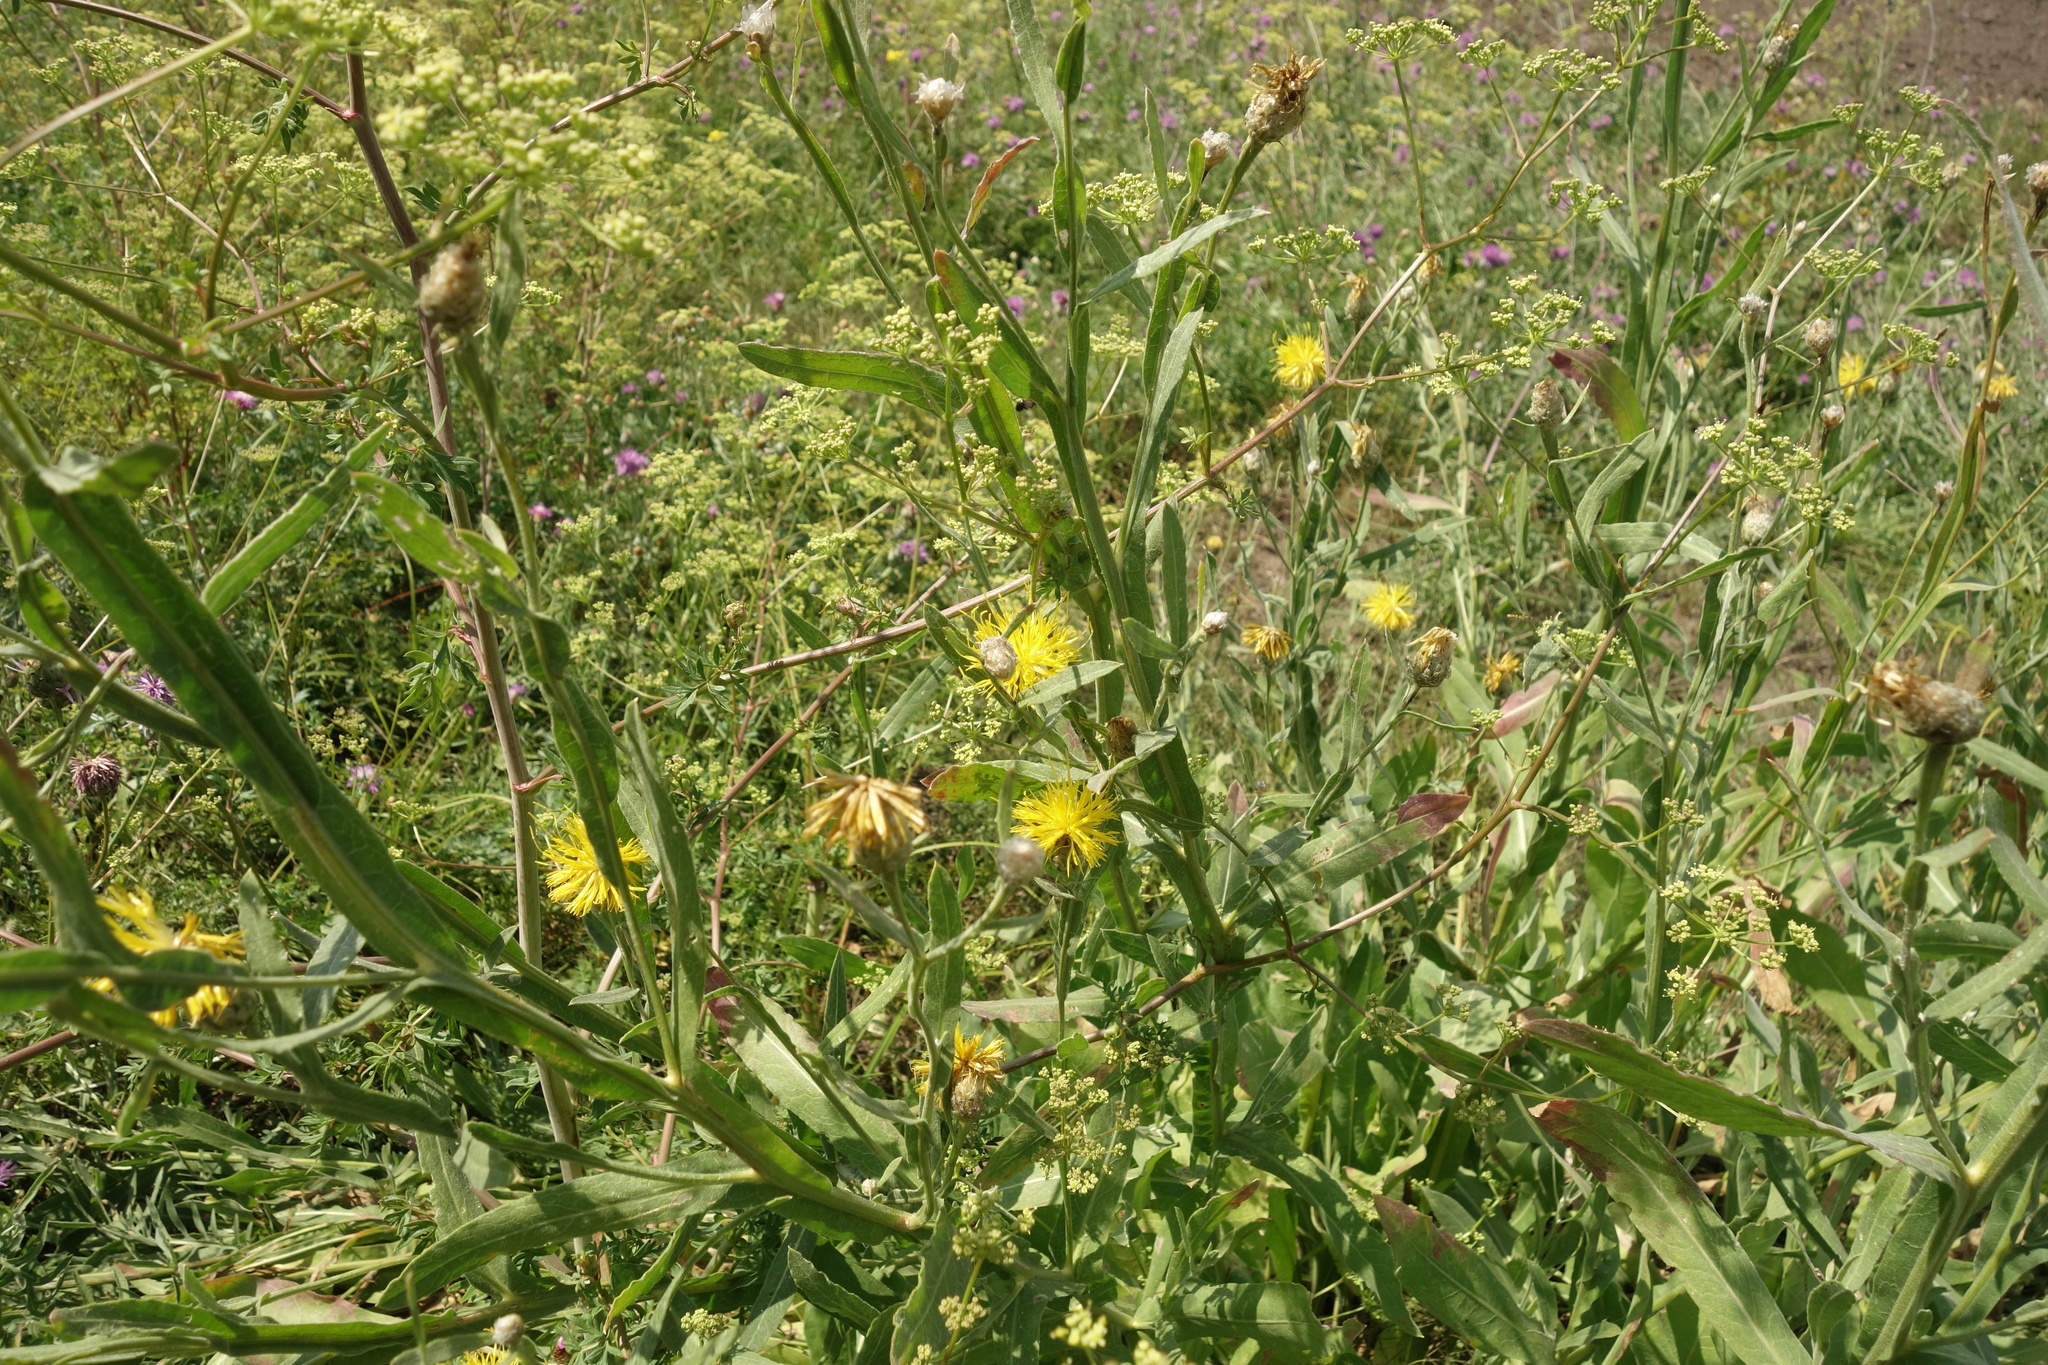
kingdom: Plantae
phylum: Tracheophyta
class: Magnoliopsida
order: Asterales
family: Asteraceae
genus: Centaurea
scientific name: Centaurea glastifolia
